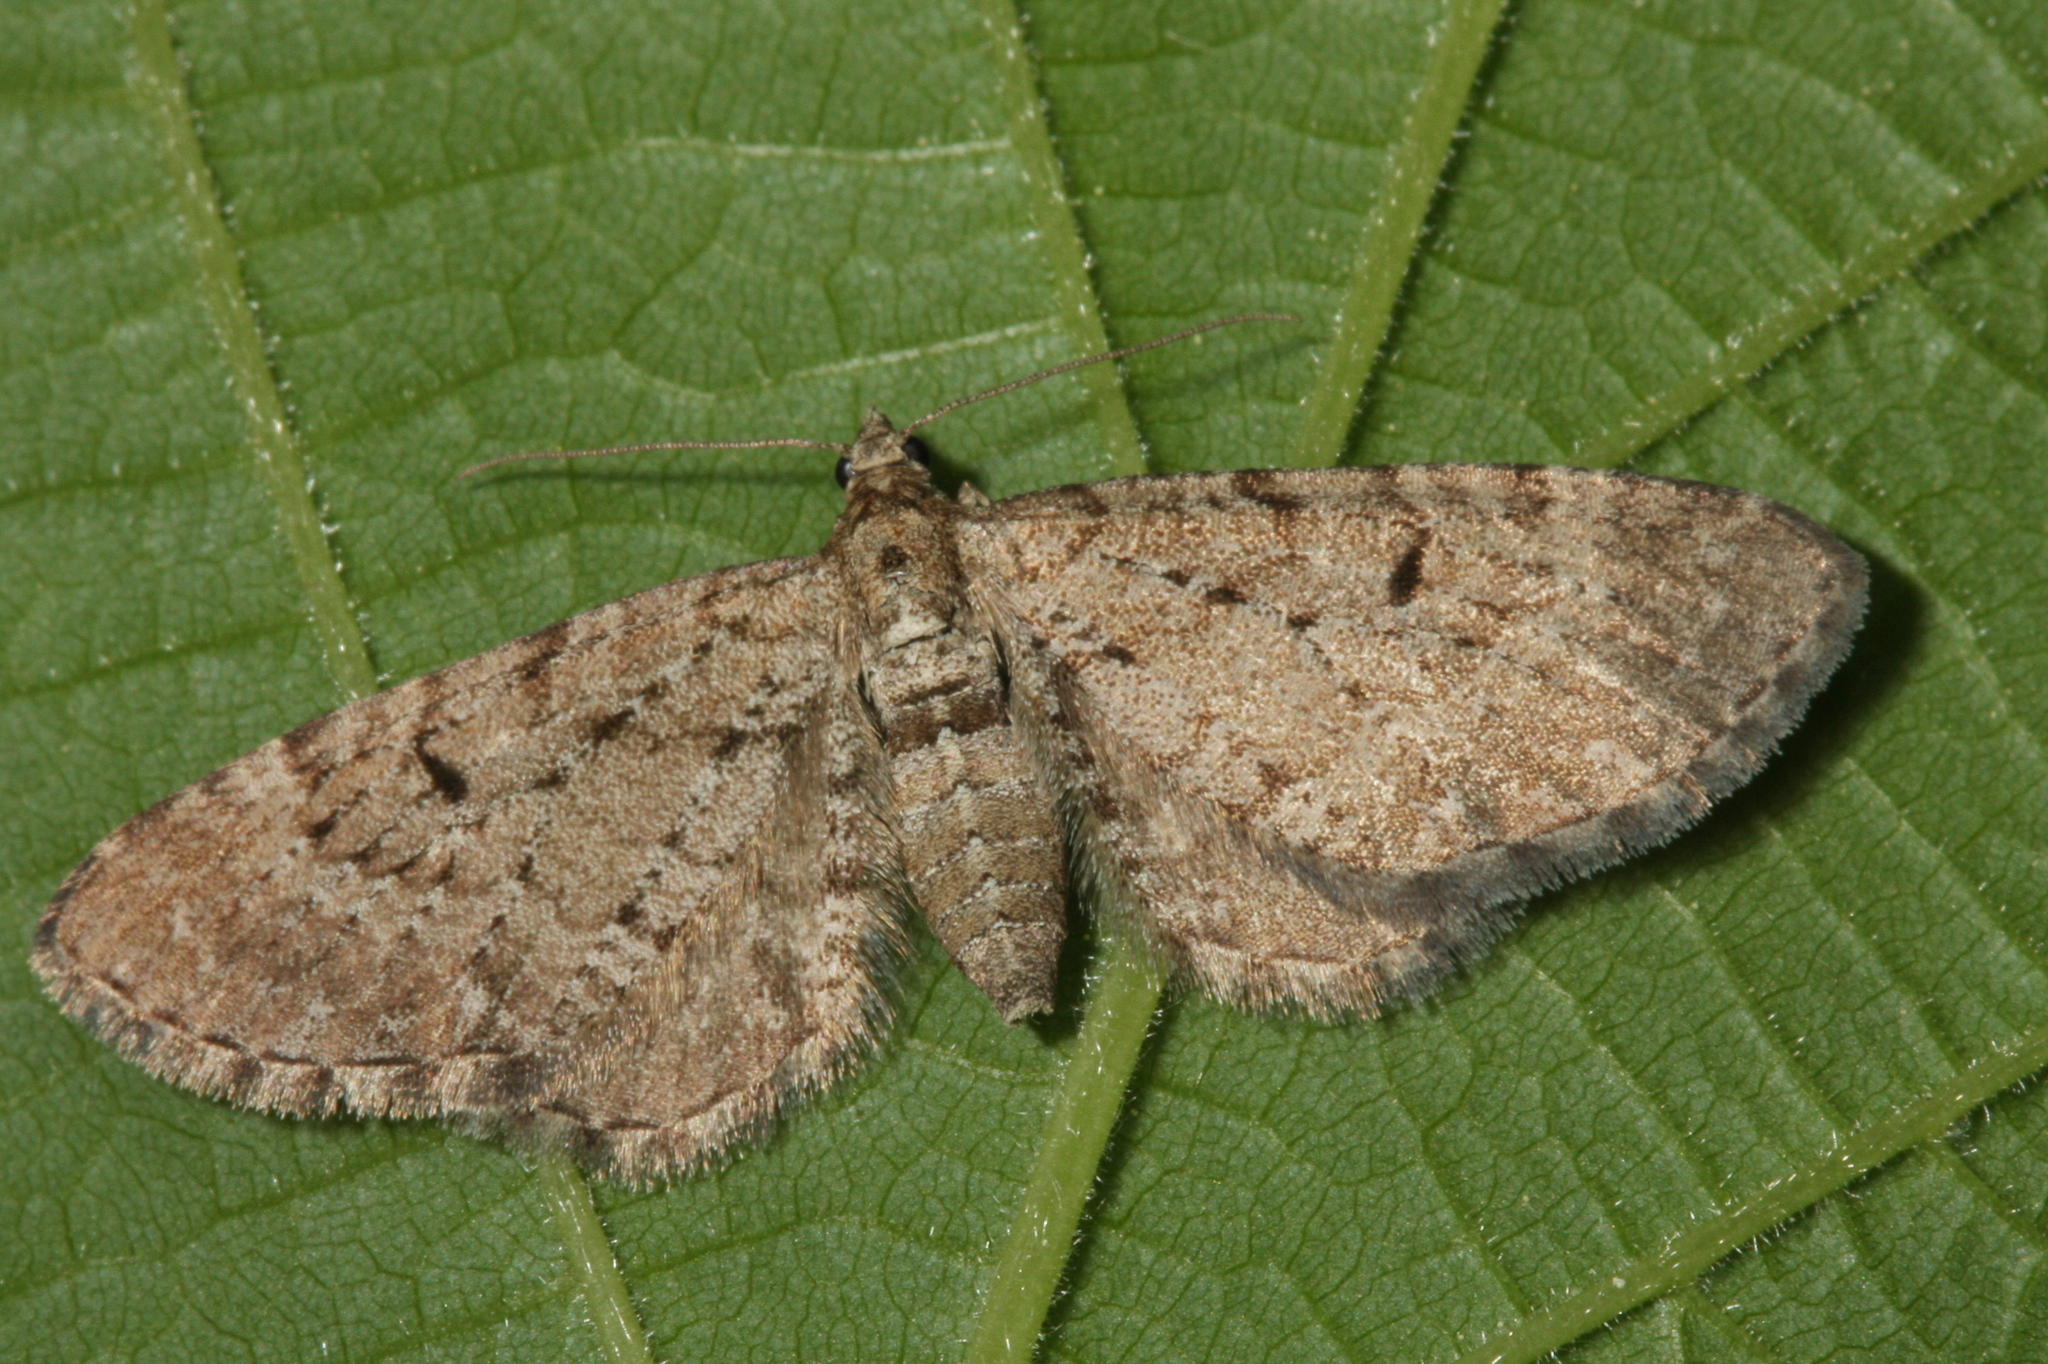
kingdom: Animalia
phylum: Arthropoda
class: Insecta
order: Lepidoptera
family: Geometridae
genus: Eupithecia
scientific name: Eupithecia intricata
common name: Freyers pug
